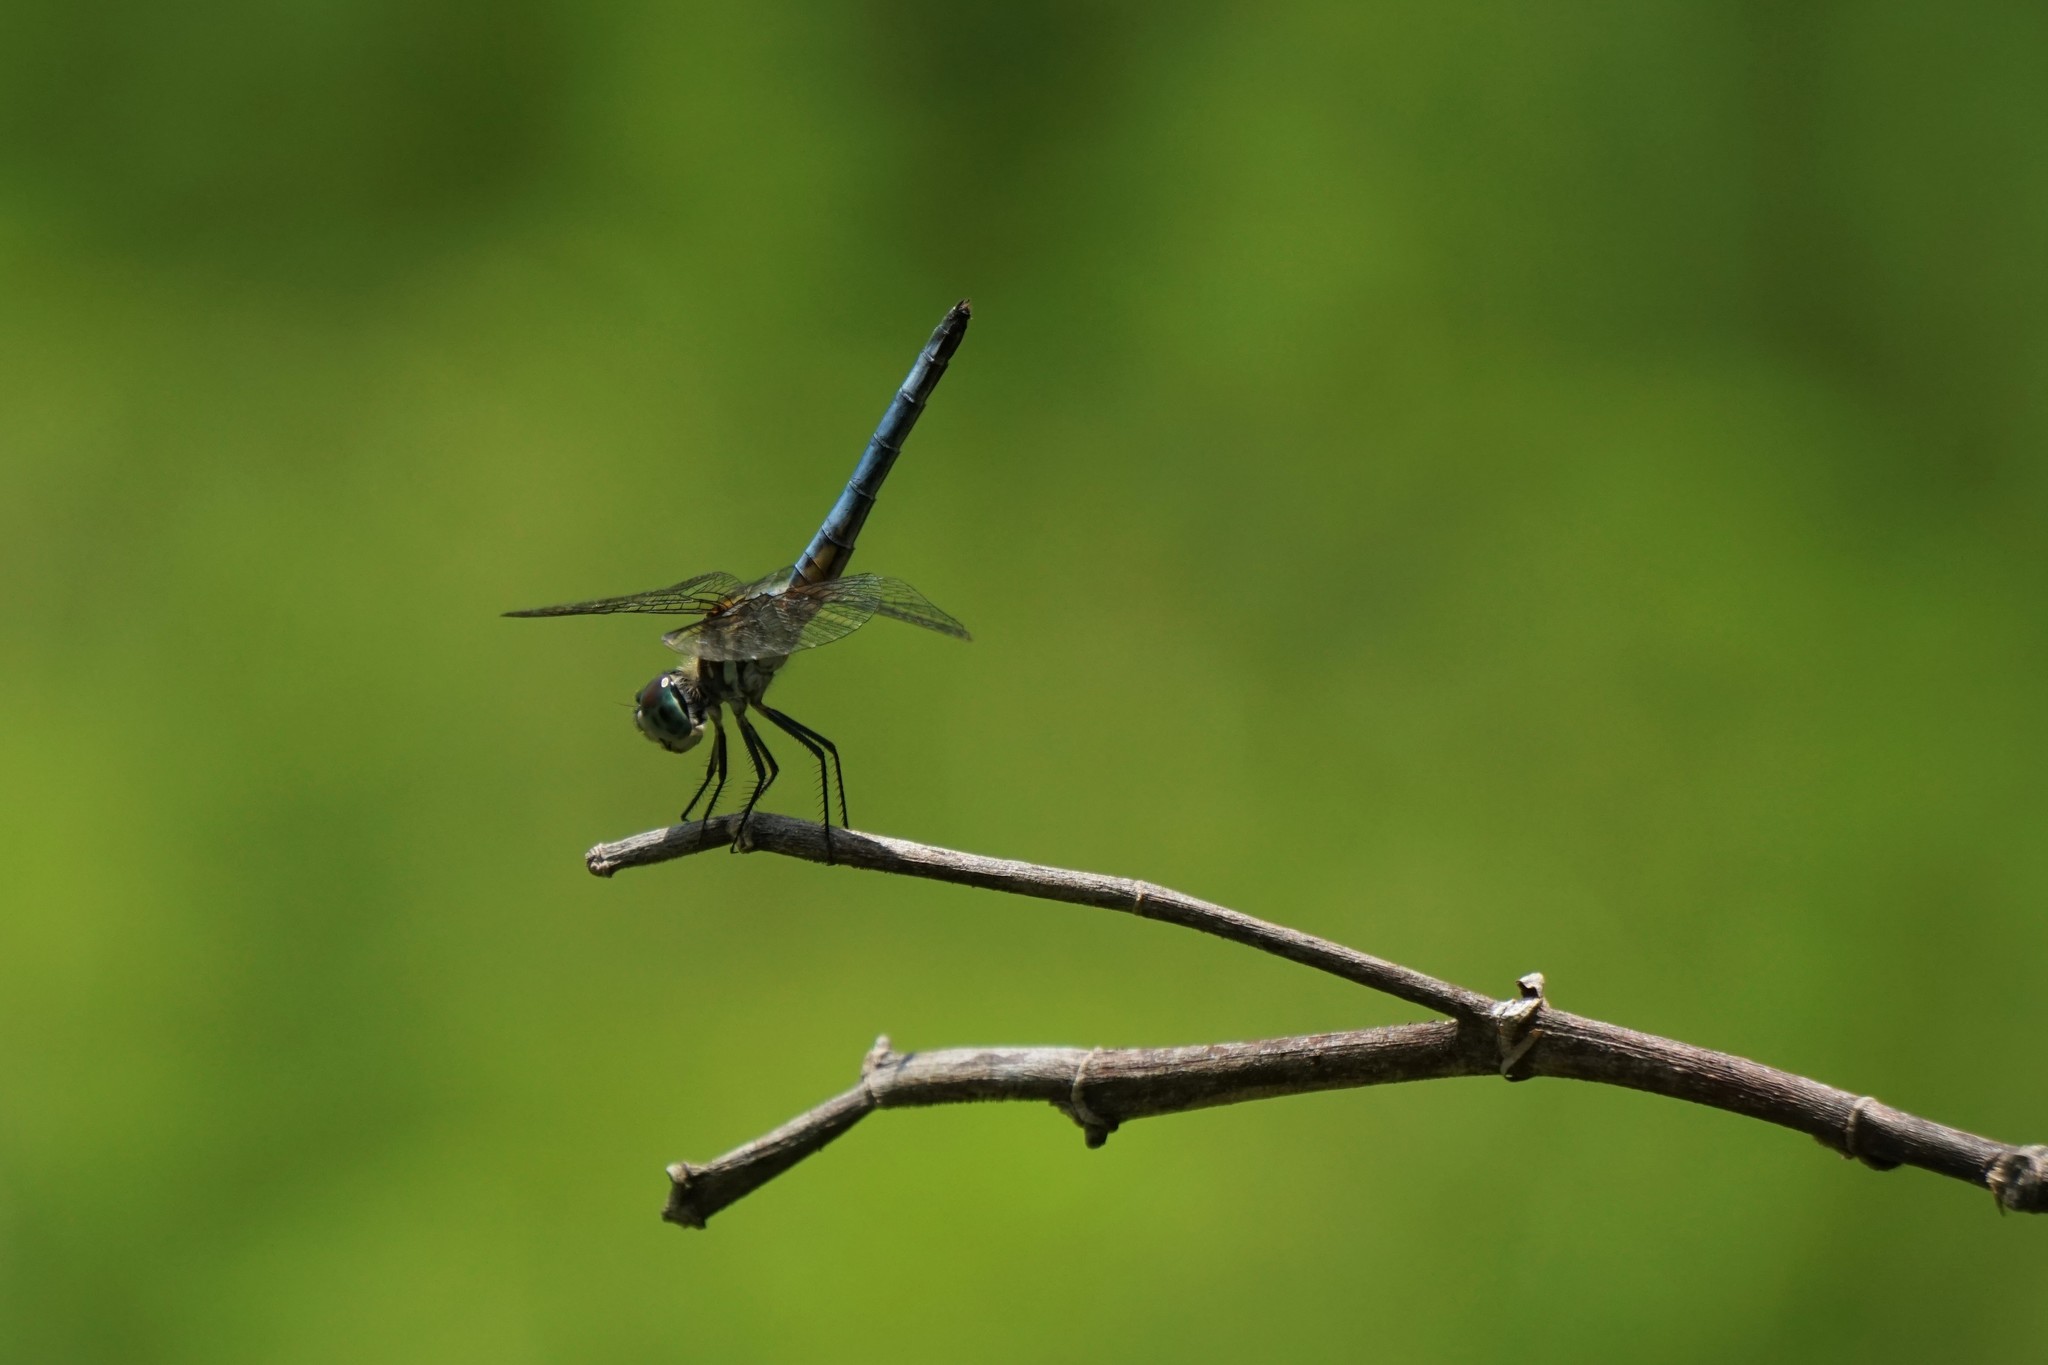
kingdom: Animalia
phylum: Arthropoda
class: Insecta
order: Odonata
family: Libellulidae
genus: Pachydiplax
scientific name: Pachydiplax longipennis
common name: Blue dasher
